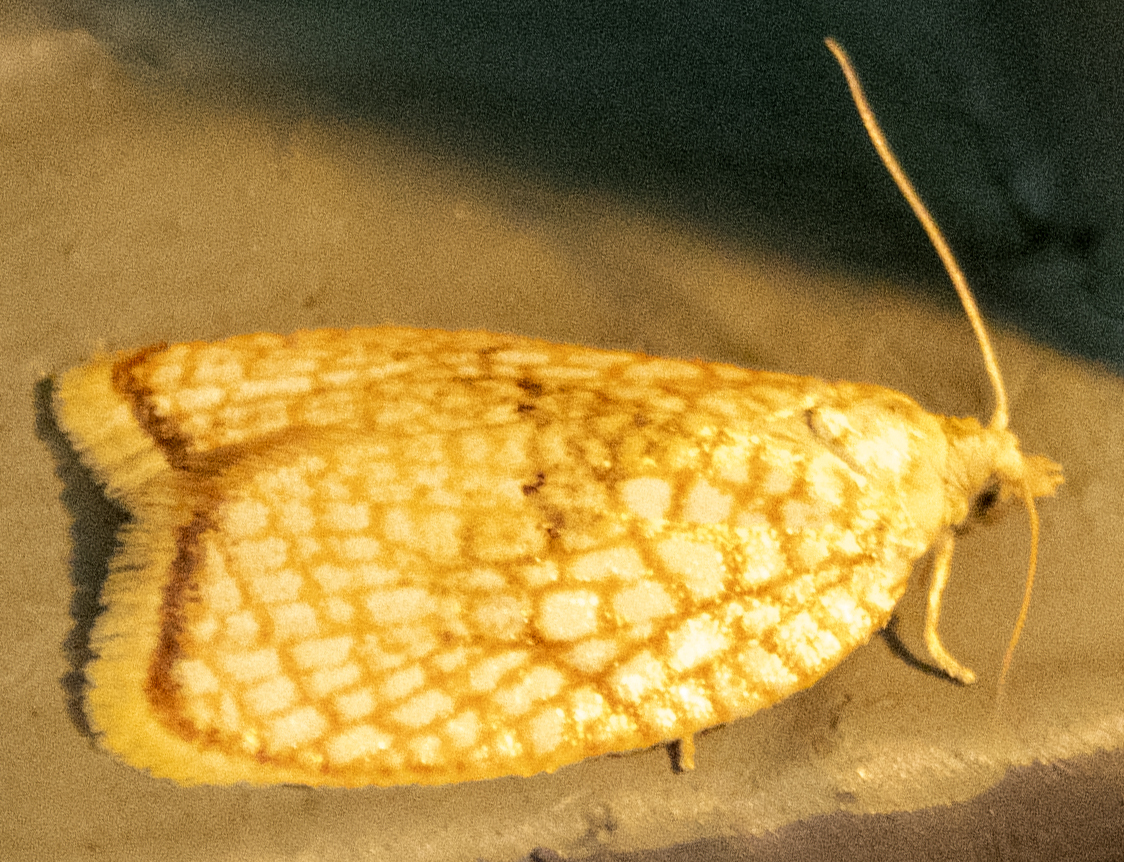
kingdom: Animalia
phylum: Arthropoda
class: Insecta
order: Lepidoptera
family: Tortricidae
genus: Acleris
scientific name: Acleris forsskaleana
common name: Maple button
